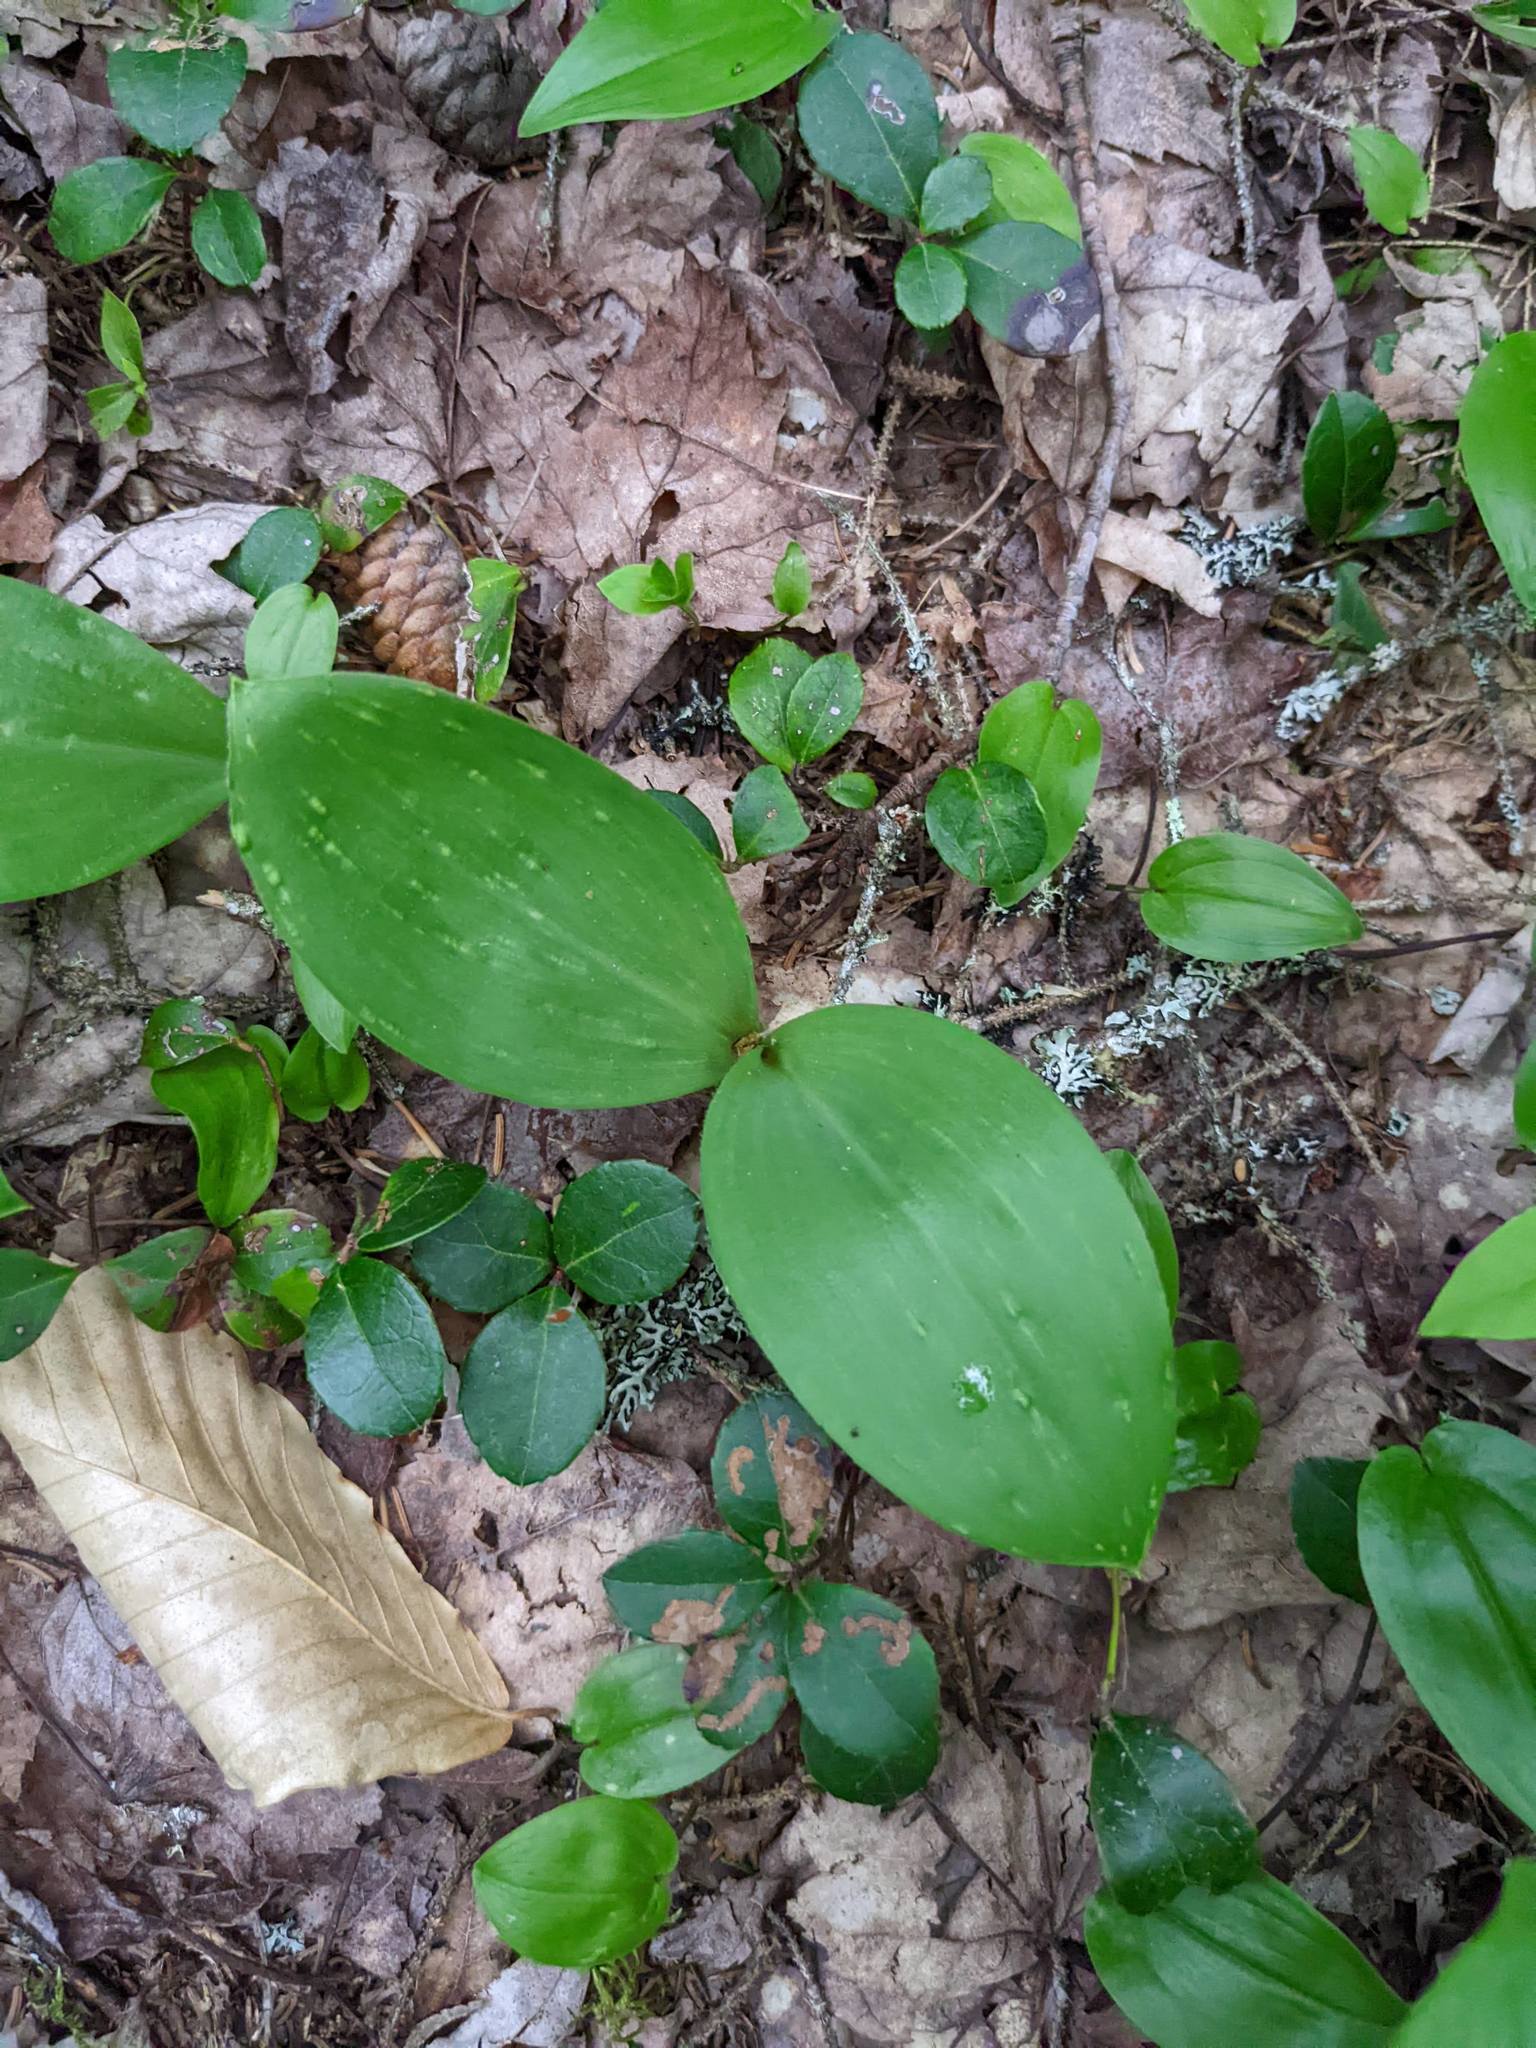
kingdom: Plantae
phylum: Tracheophyta
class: Liliopsida
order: Liliales
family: Liliaceae
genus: Clintonia
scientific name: Clintonia borealis
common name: Yellow clintonia
